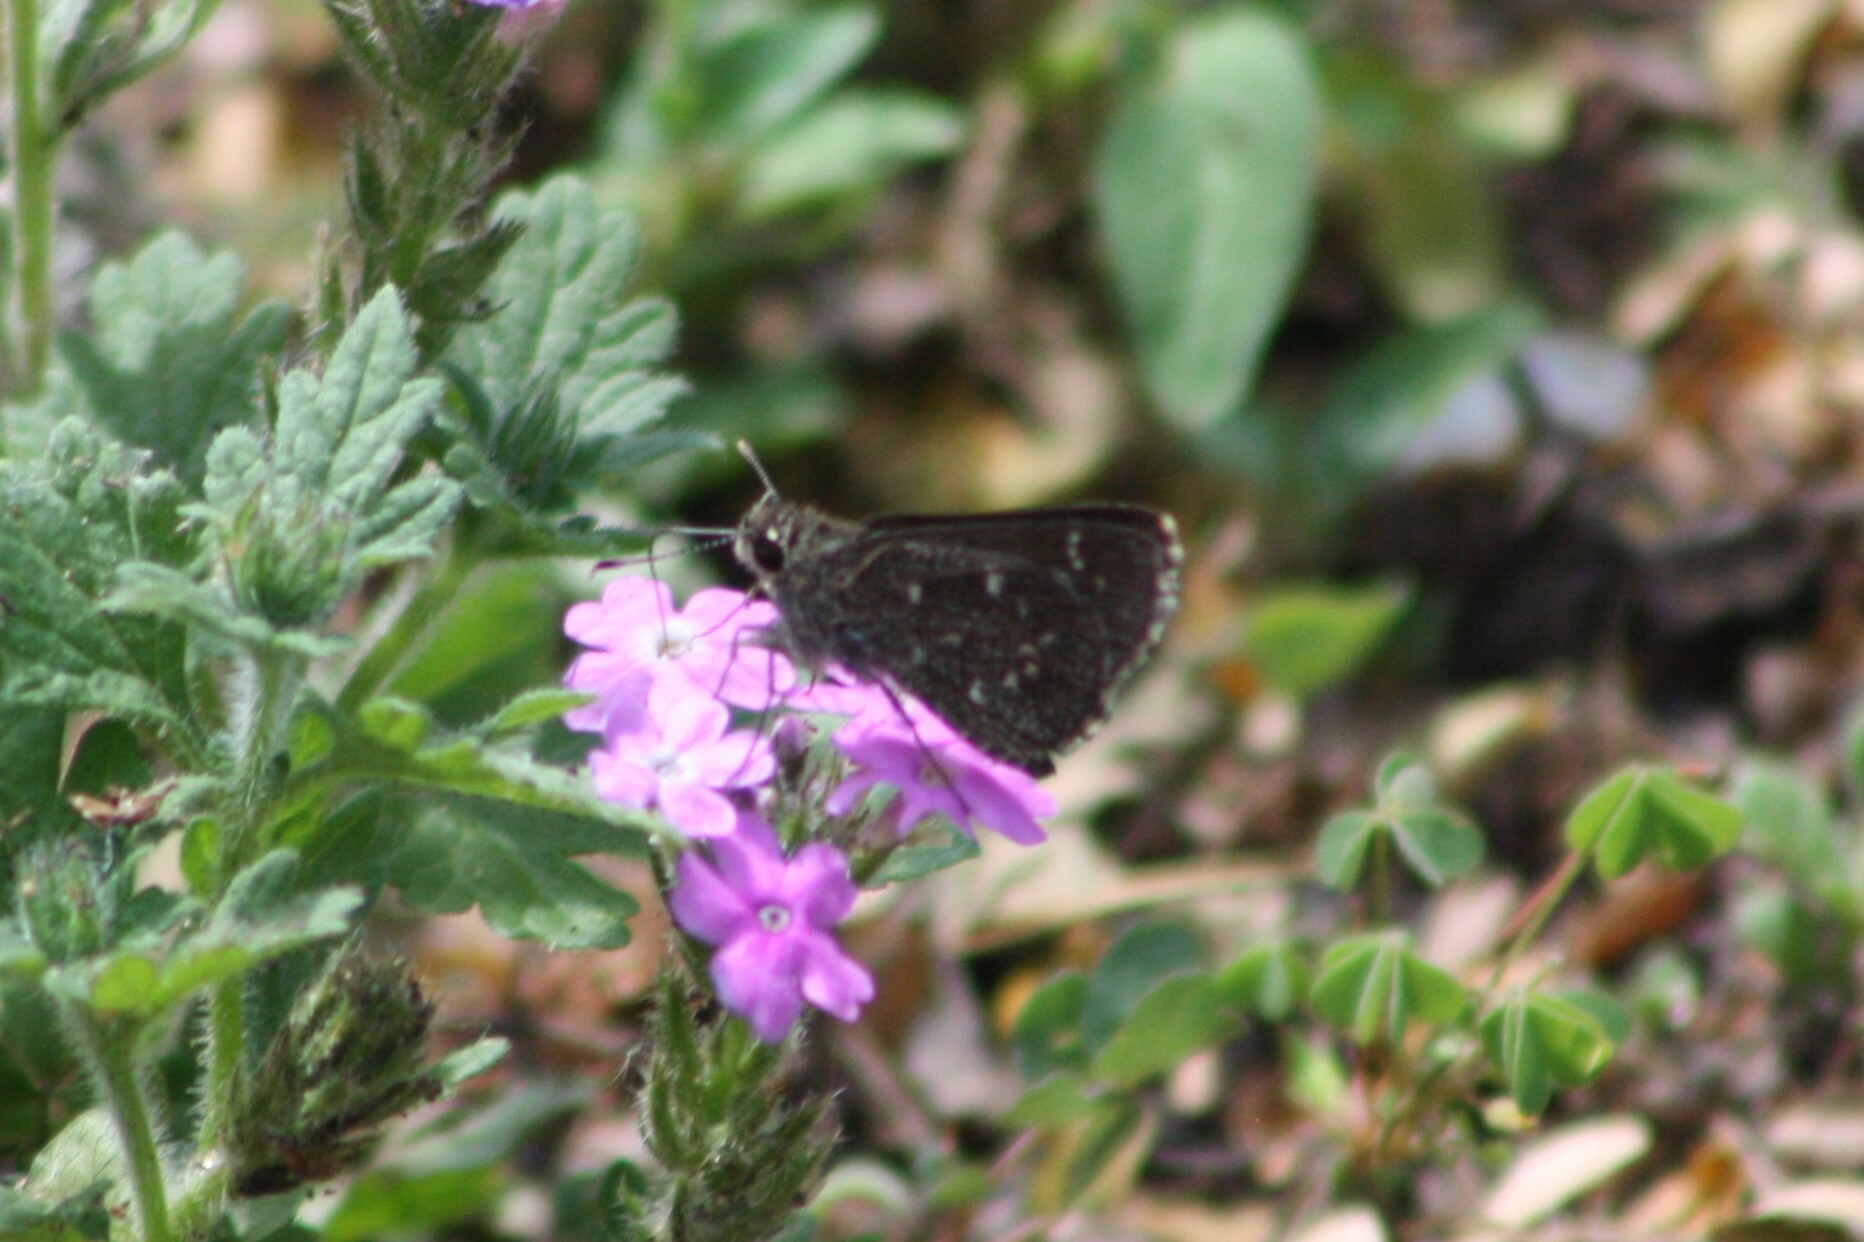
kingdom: Animalia
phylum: Arthropoda
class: Insecta
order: Lepidoptera
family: Hesperiidae
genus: Mastor
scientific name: Mastor celia
